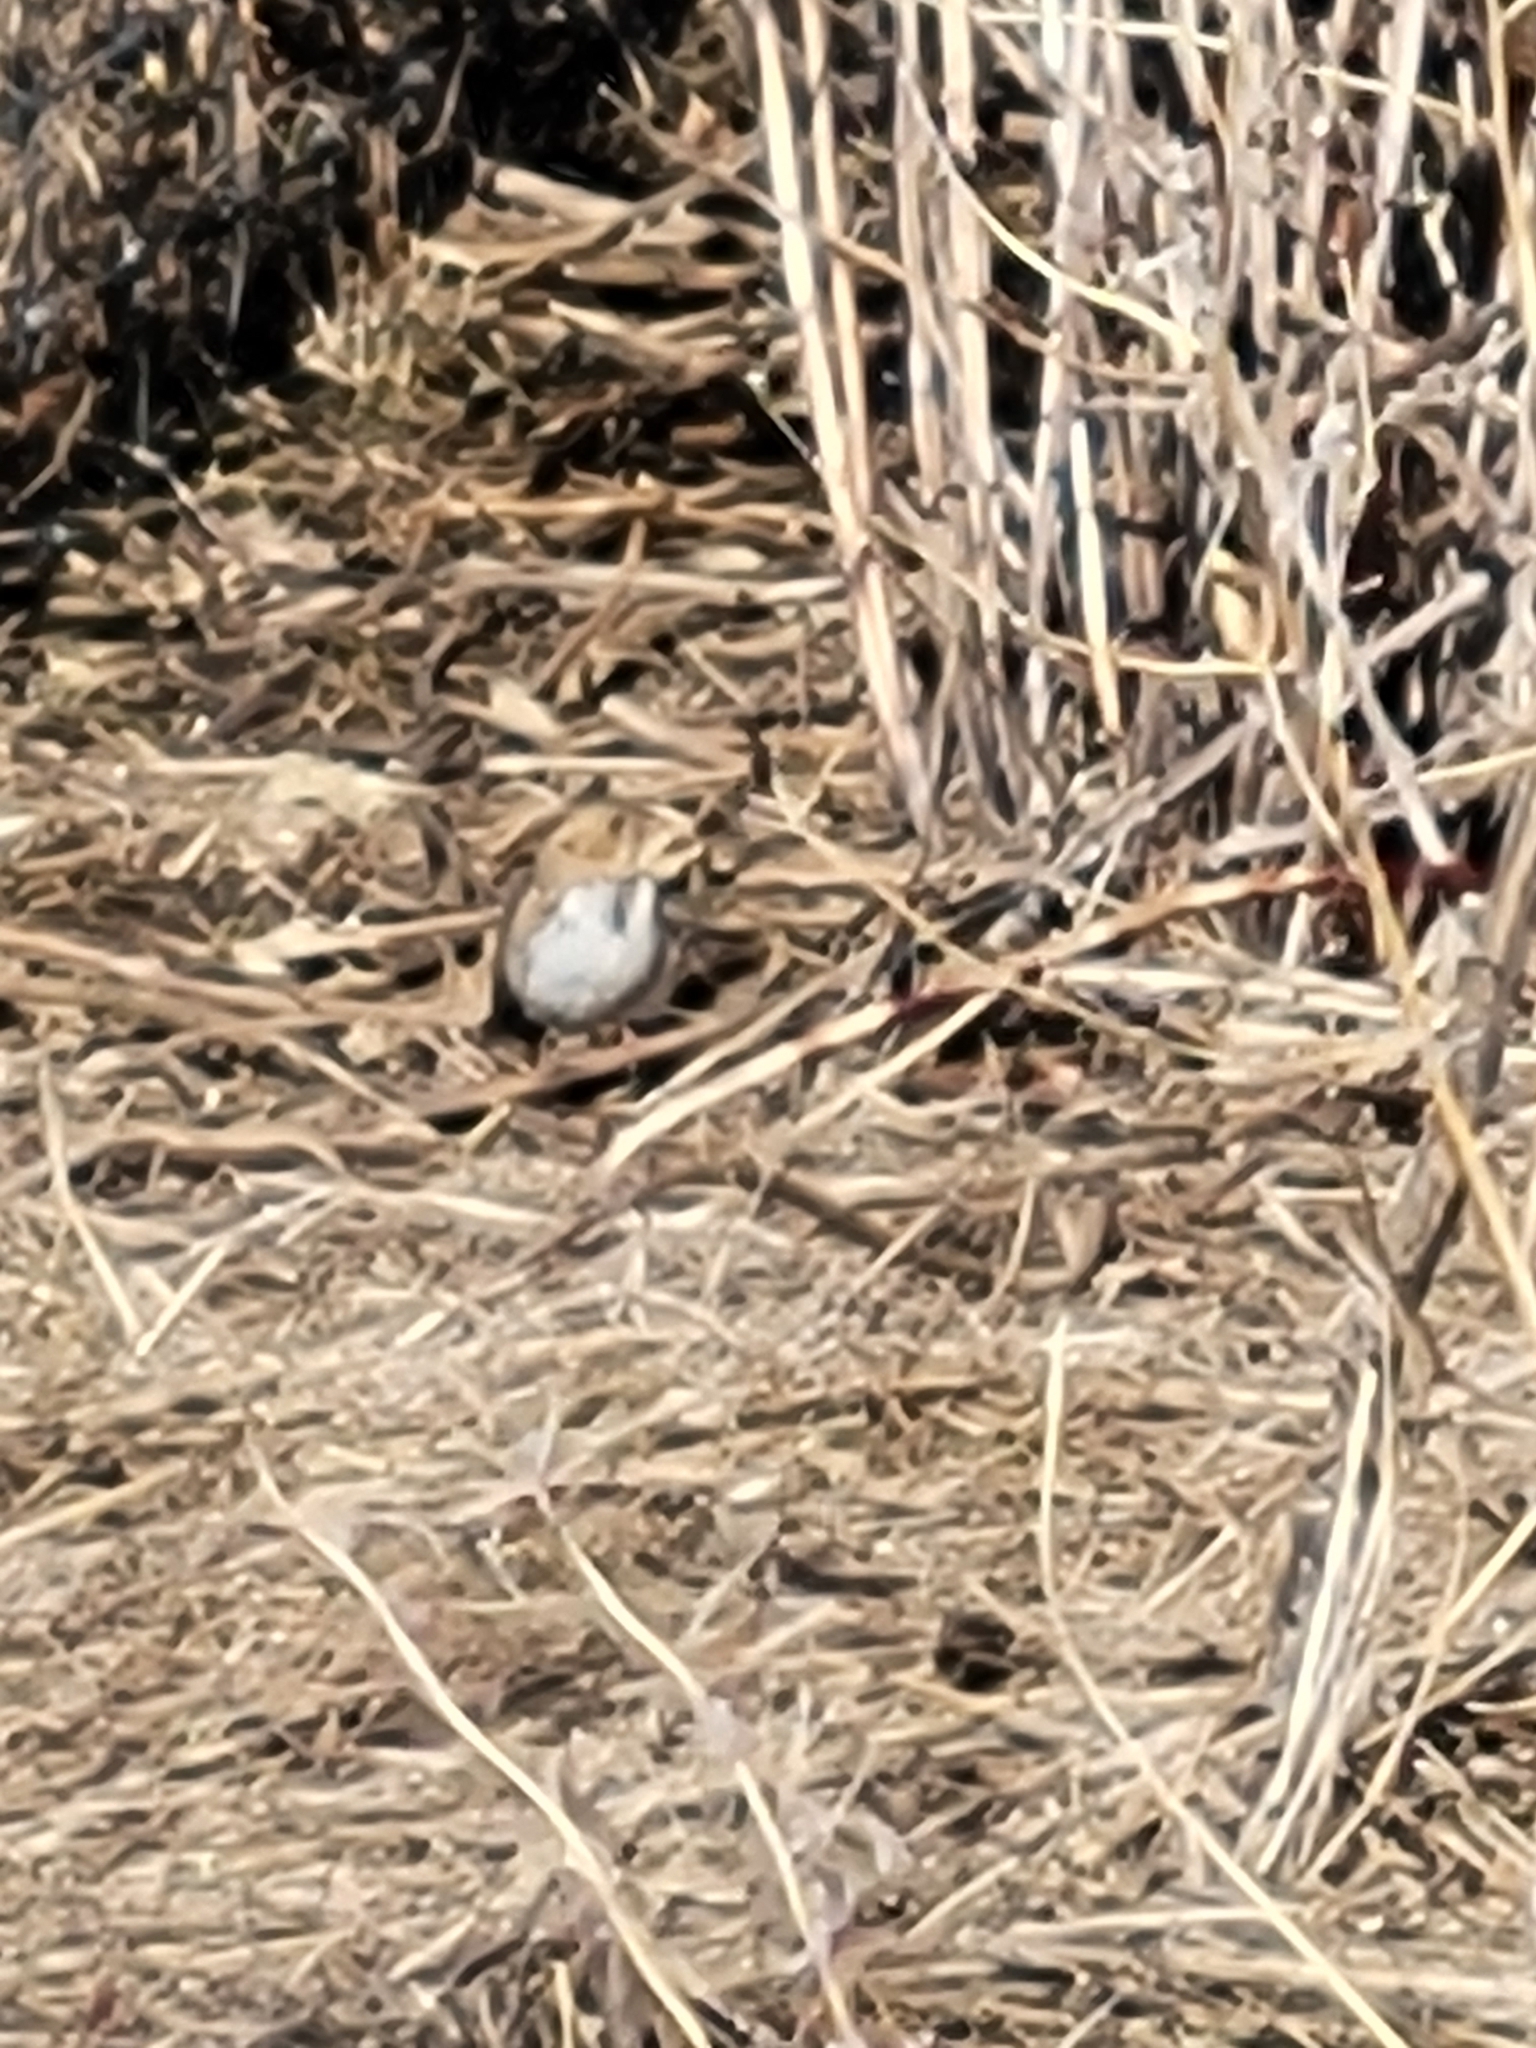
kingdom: Animalia
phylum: Chordata
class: Aves
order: Passeriformes
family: Passerellidae
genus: Zonotrichia
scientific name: Zonotrichia querula
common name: Harris's sparrow
